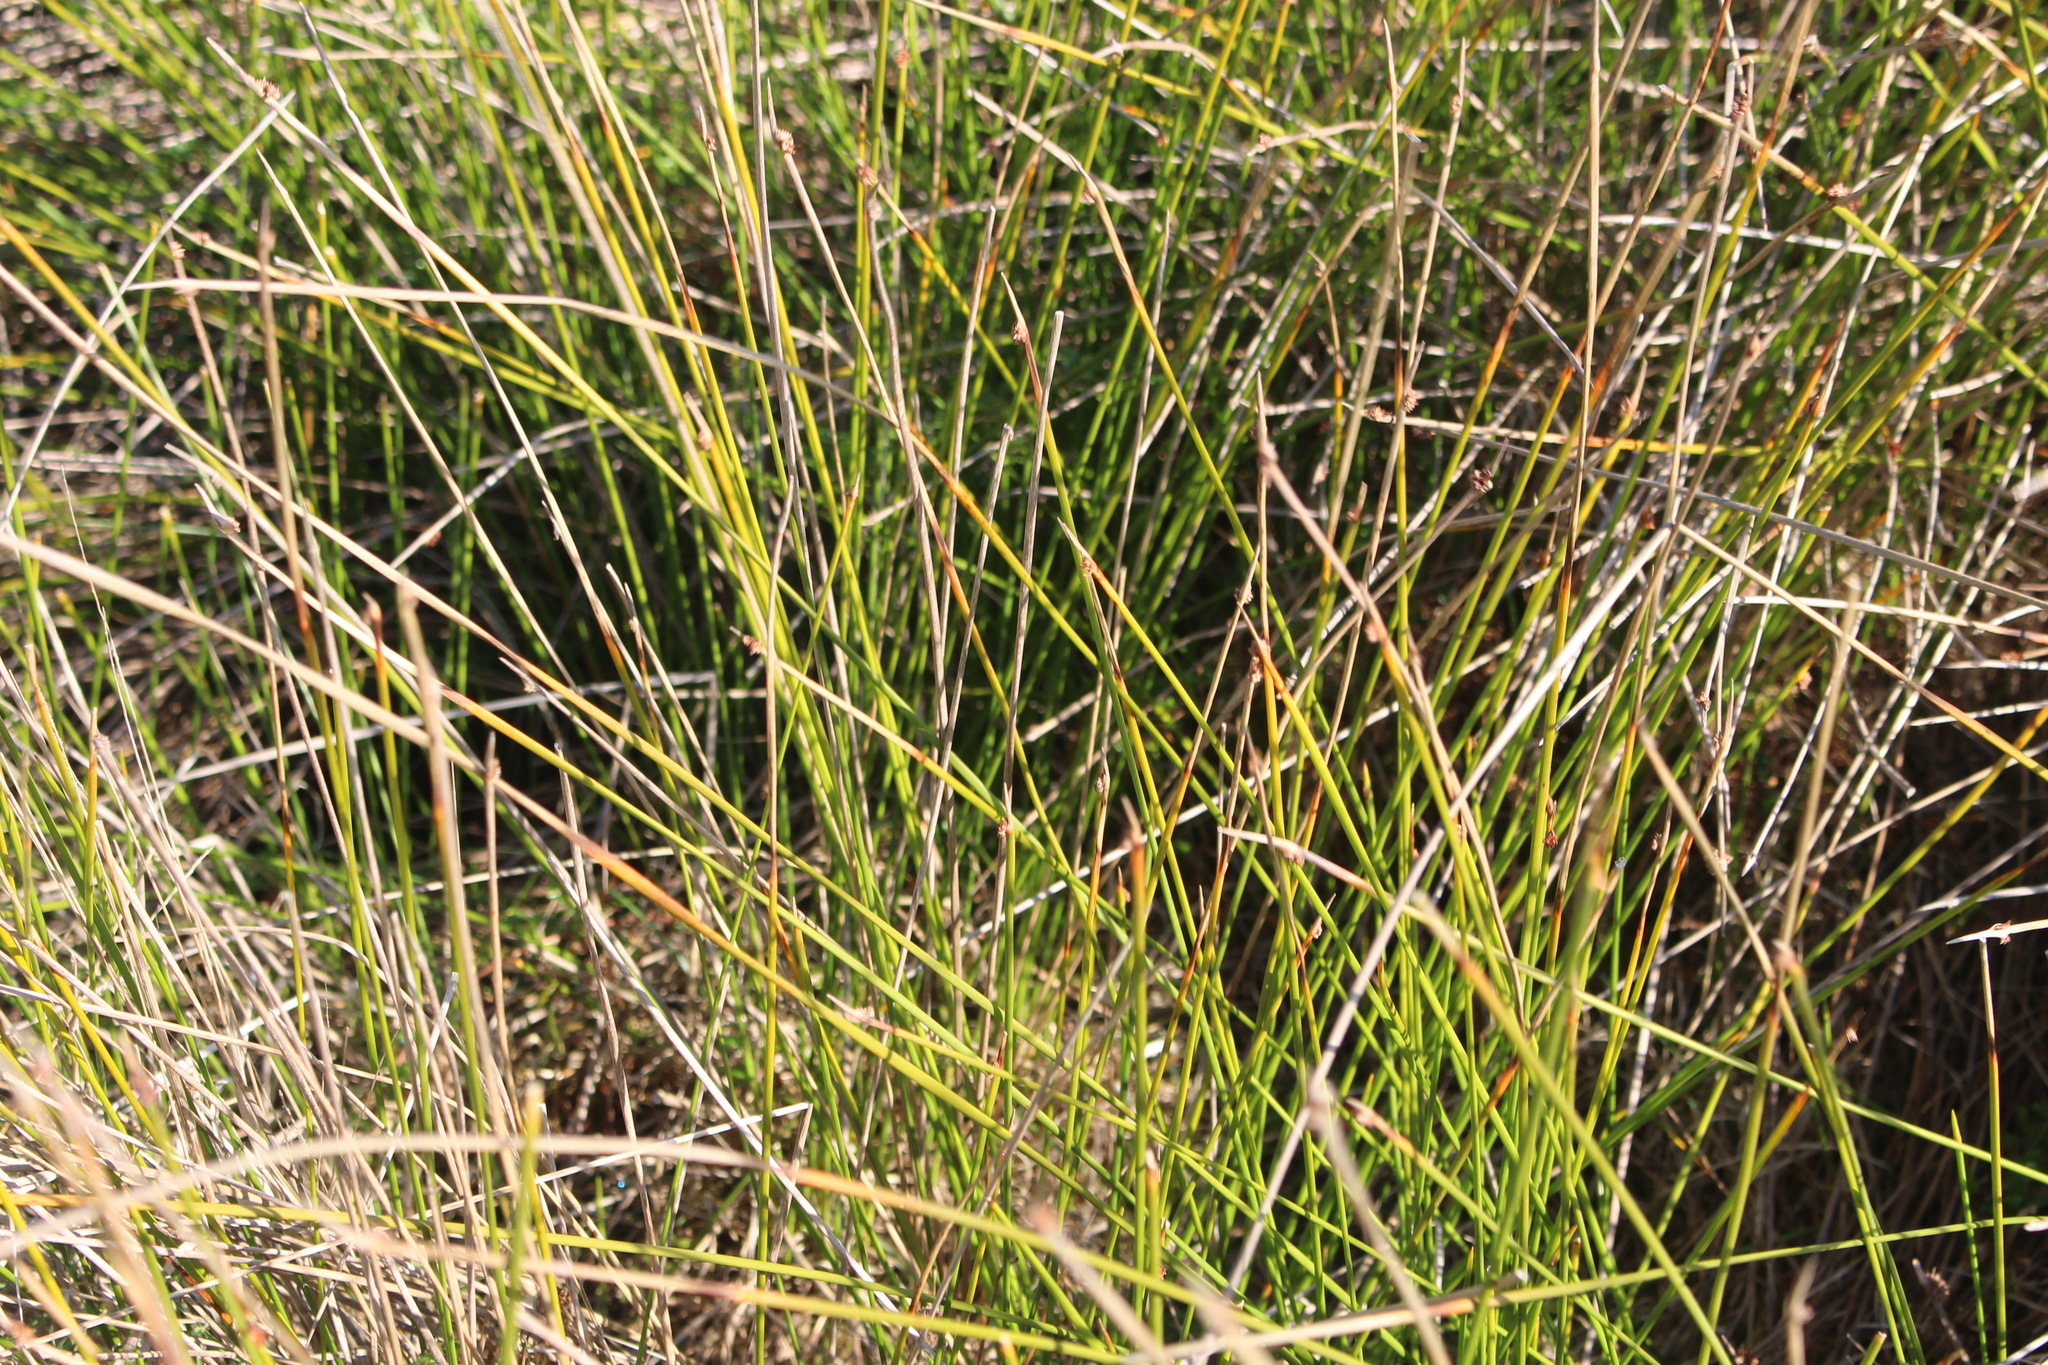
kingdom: Plantae
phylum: Tracheophyta
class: Liliopsida
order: Poales
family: Cyperaceae
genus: Ficinia
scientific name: Ficinia nodosa
